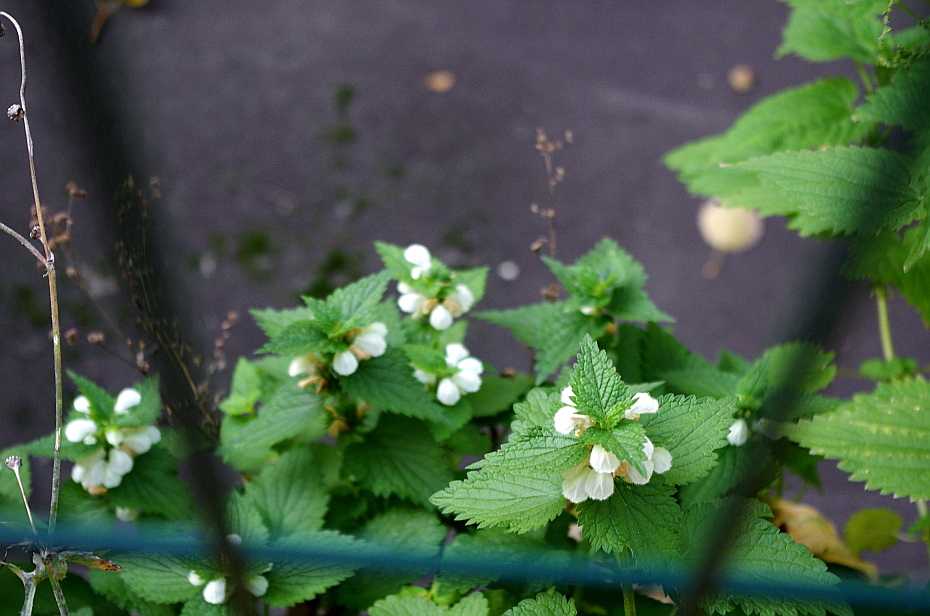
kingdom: Plantae
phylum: Tracheophyta
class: Magnoliopsida
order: Lamiales
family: Lamiaceae
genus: Lamium
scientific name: Lamium album
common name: White dead-nettle
